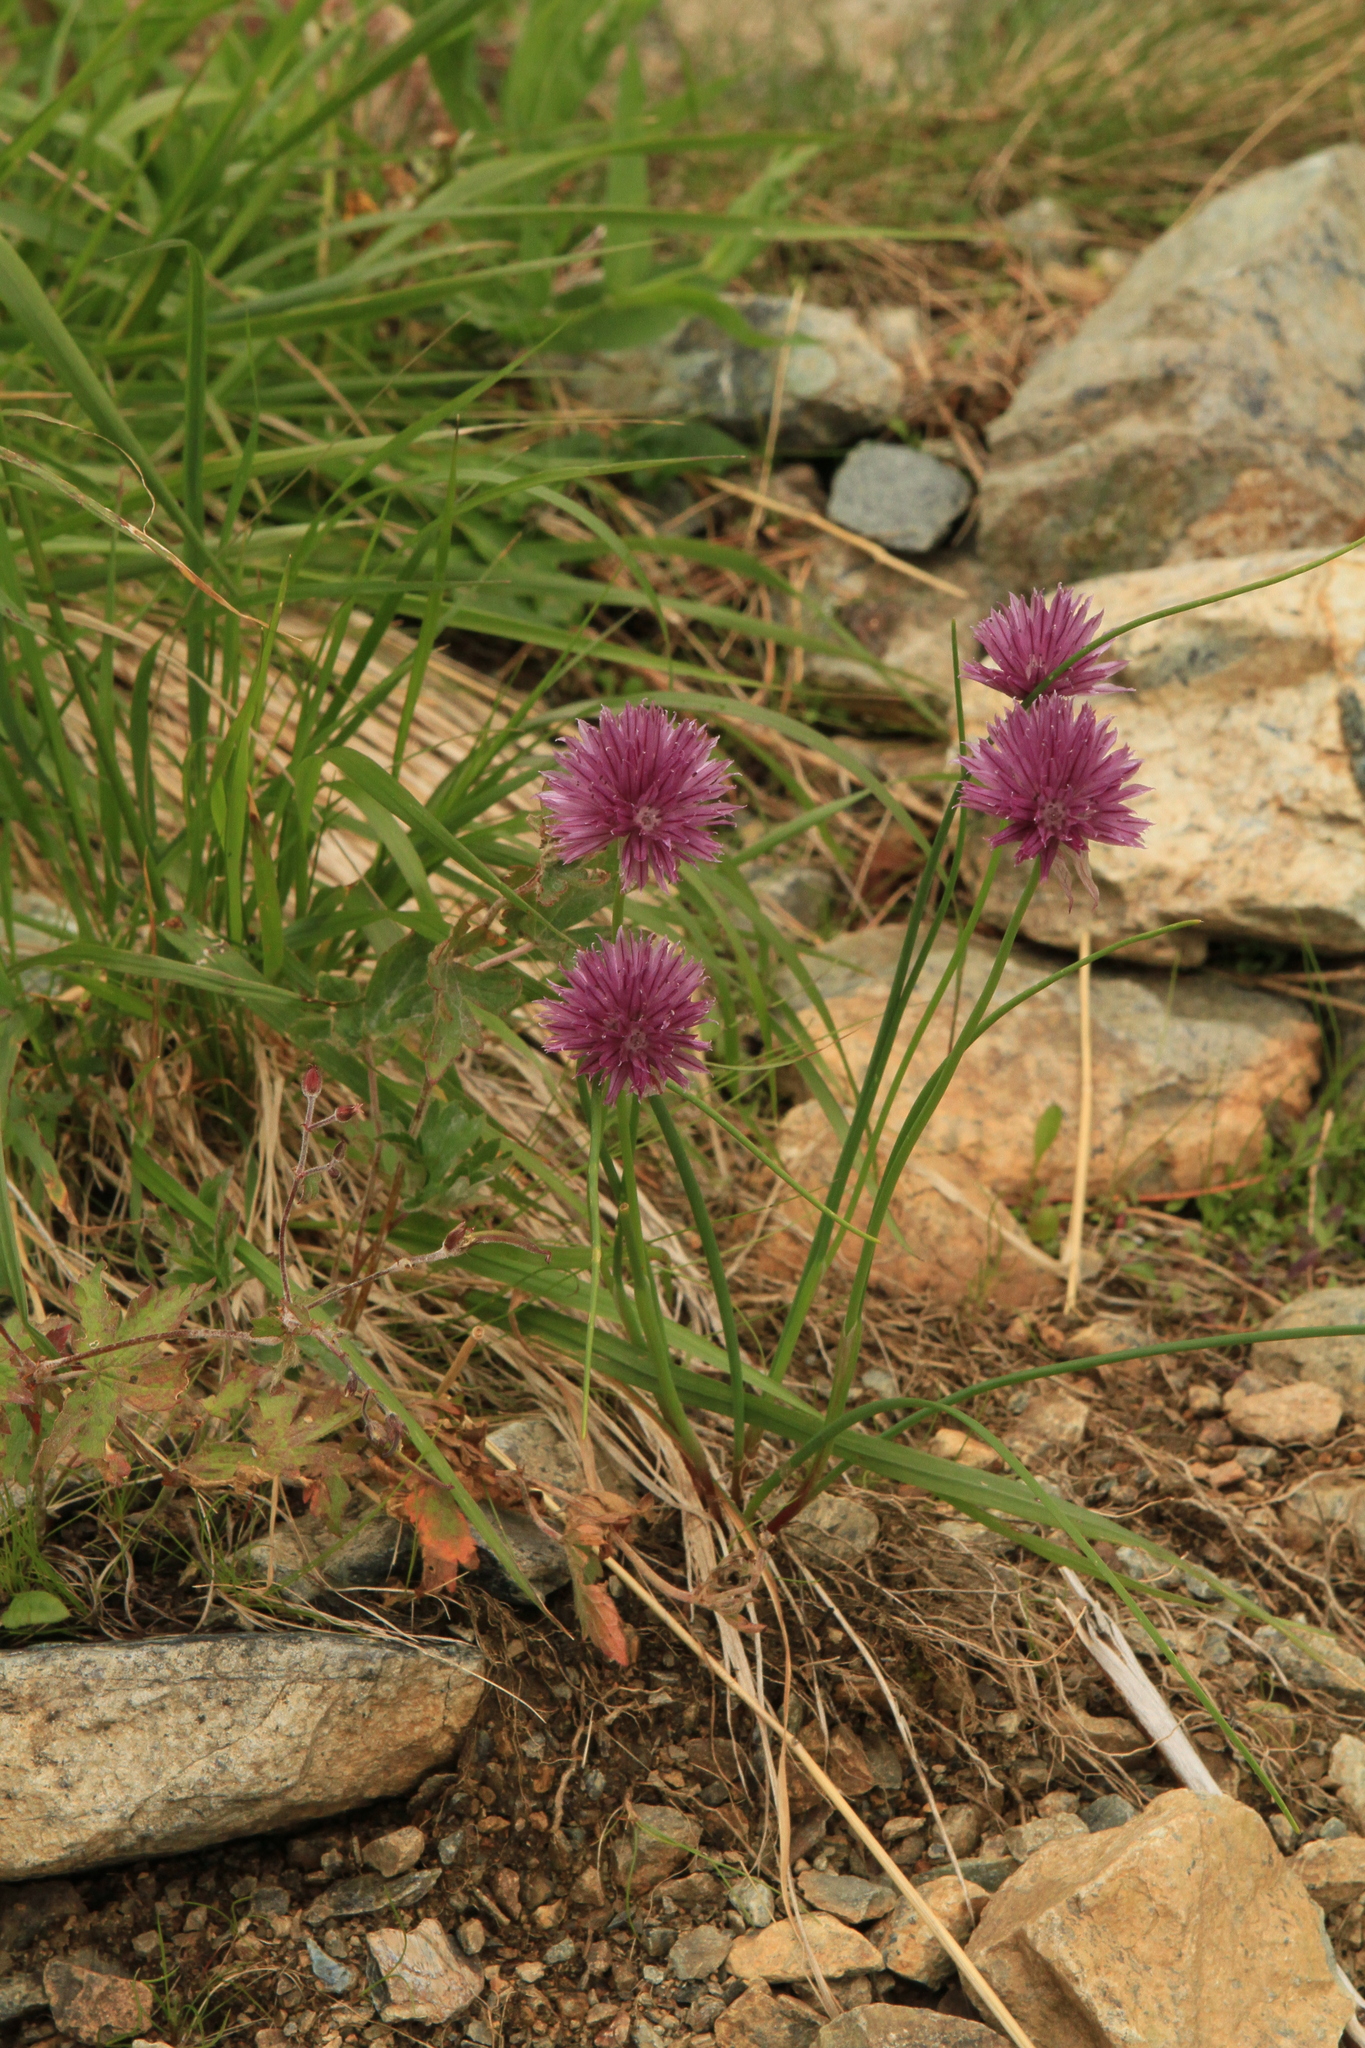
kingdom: Plantae
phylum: Tracheophyta
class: Liliopsida
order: Asparagales
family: Amaryllidaceae
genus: Allium
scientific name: Allium schoenoprasum
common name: Chives
